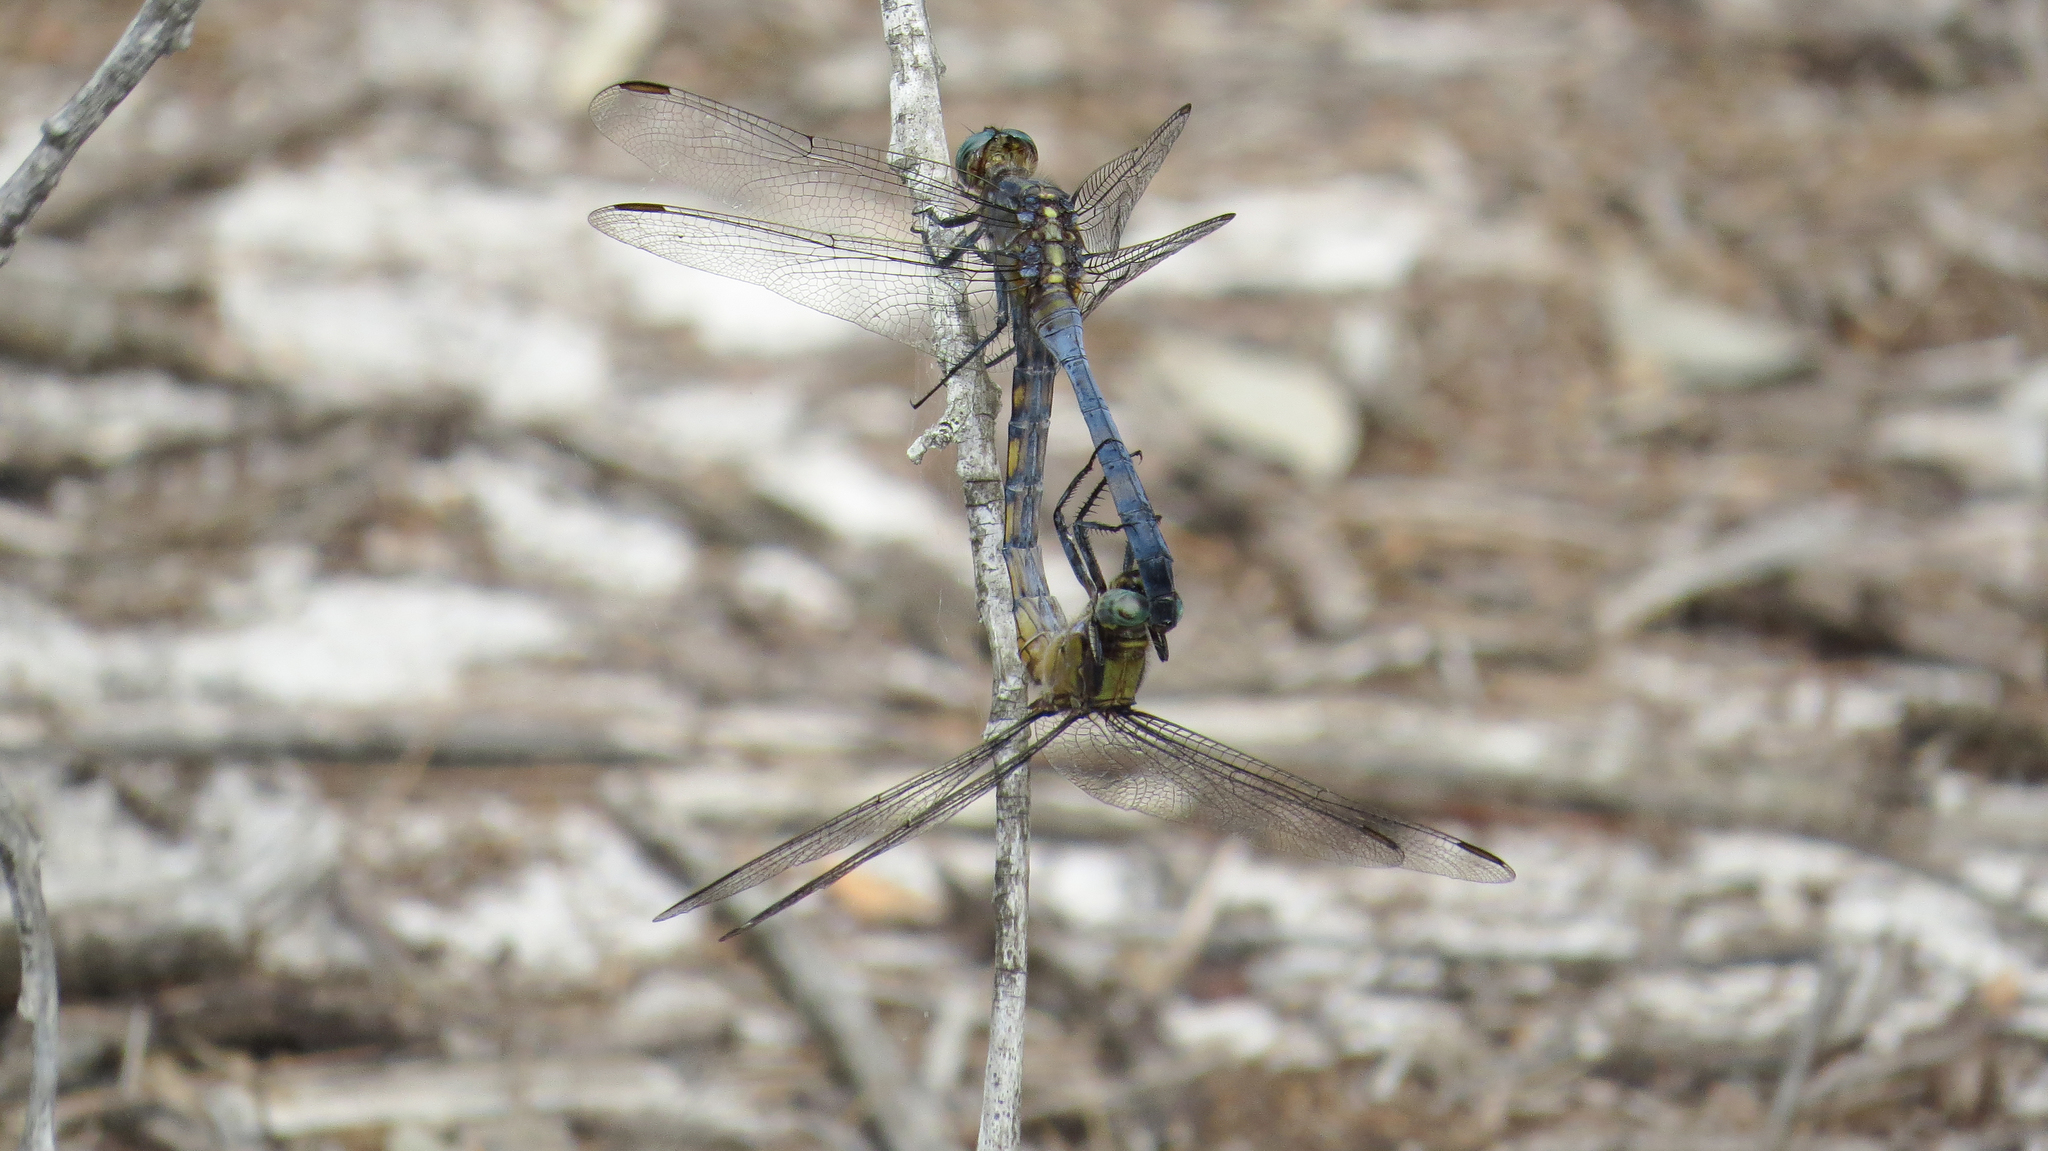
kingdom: Animalia
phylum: Arthropoda
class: Insecta
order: Odonata
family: Libellulidae
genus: Orthetrum
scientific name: Orthetrum boumiera
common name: Brownwater skimmer
